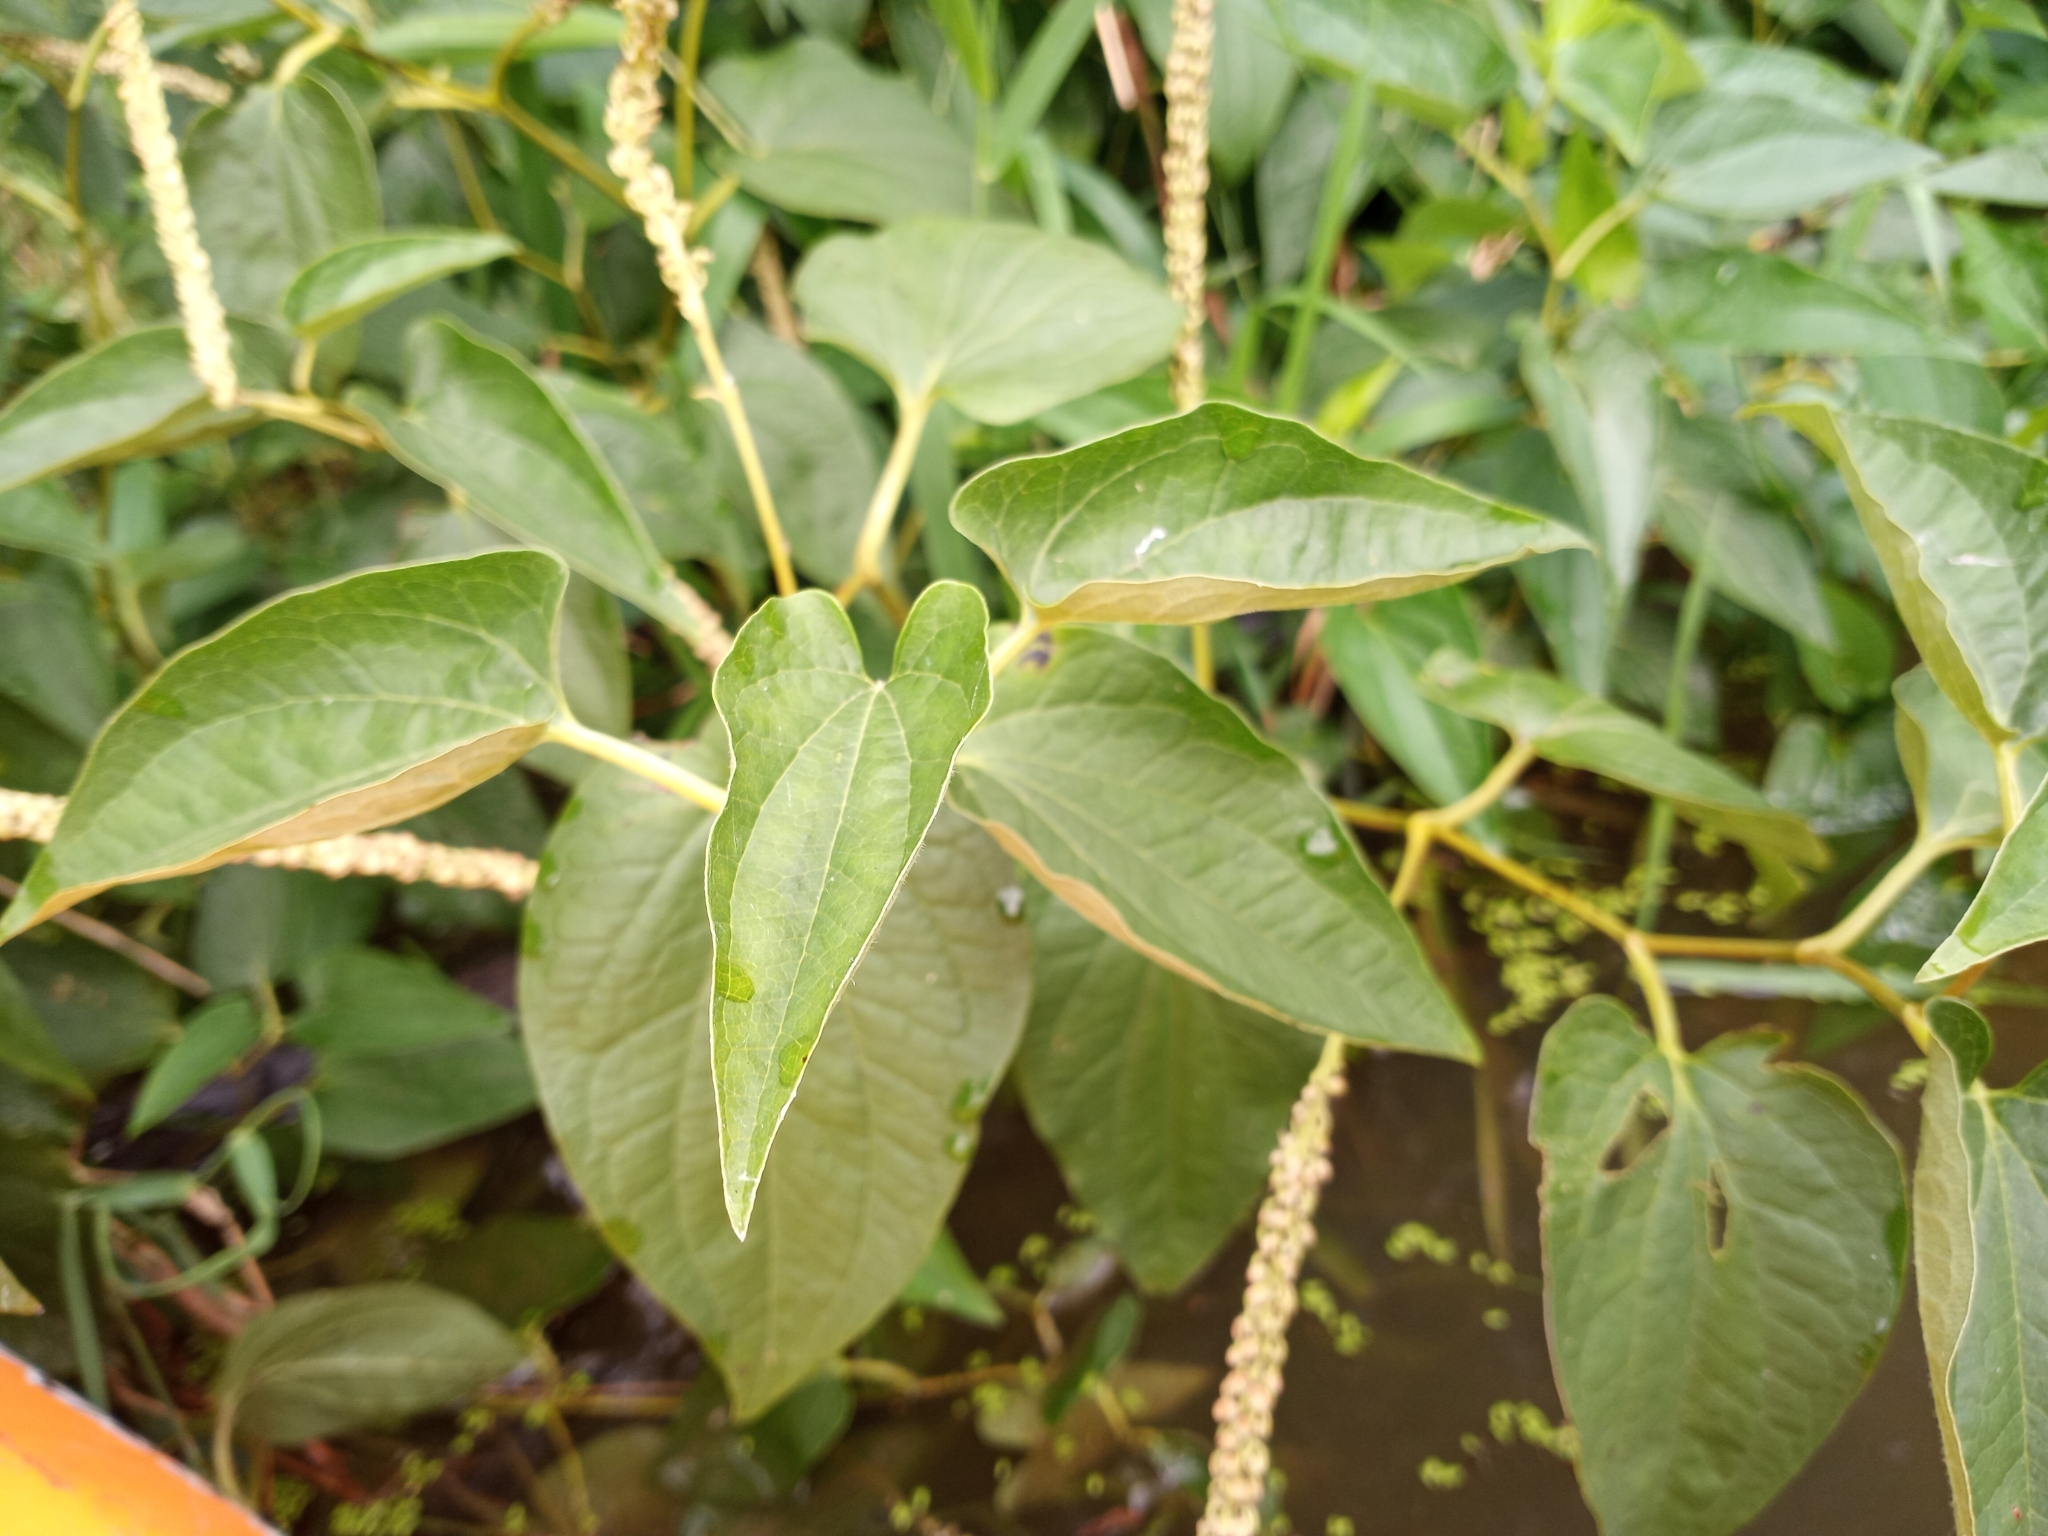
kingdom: Plantae
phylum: Tracheophyta
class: Magnoliopsida
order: Piperales
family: Saururaceae
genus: Saururus
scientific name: Saururus cernuus
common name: Lizard's-tail
